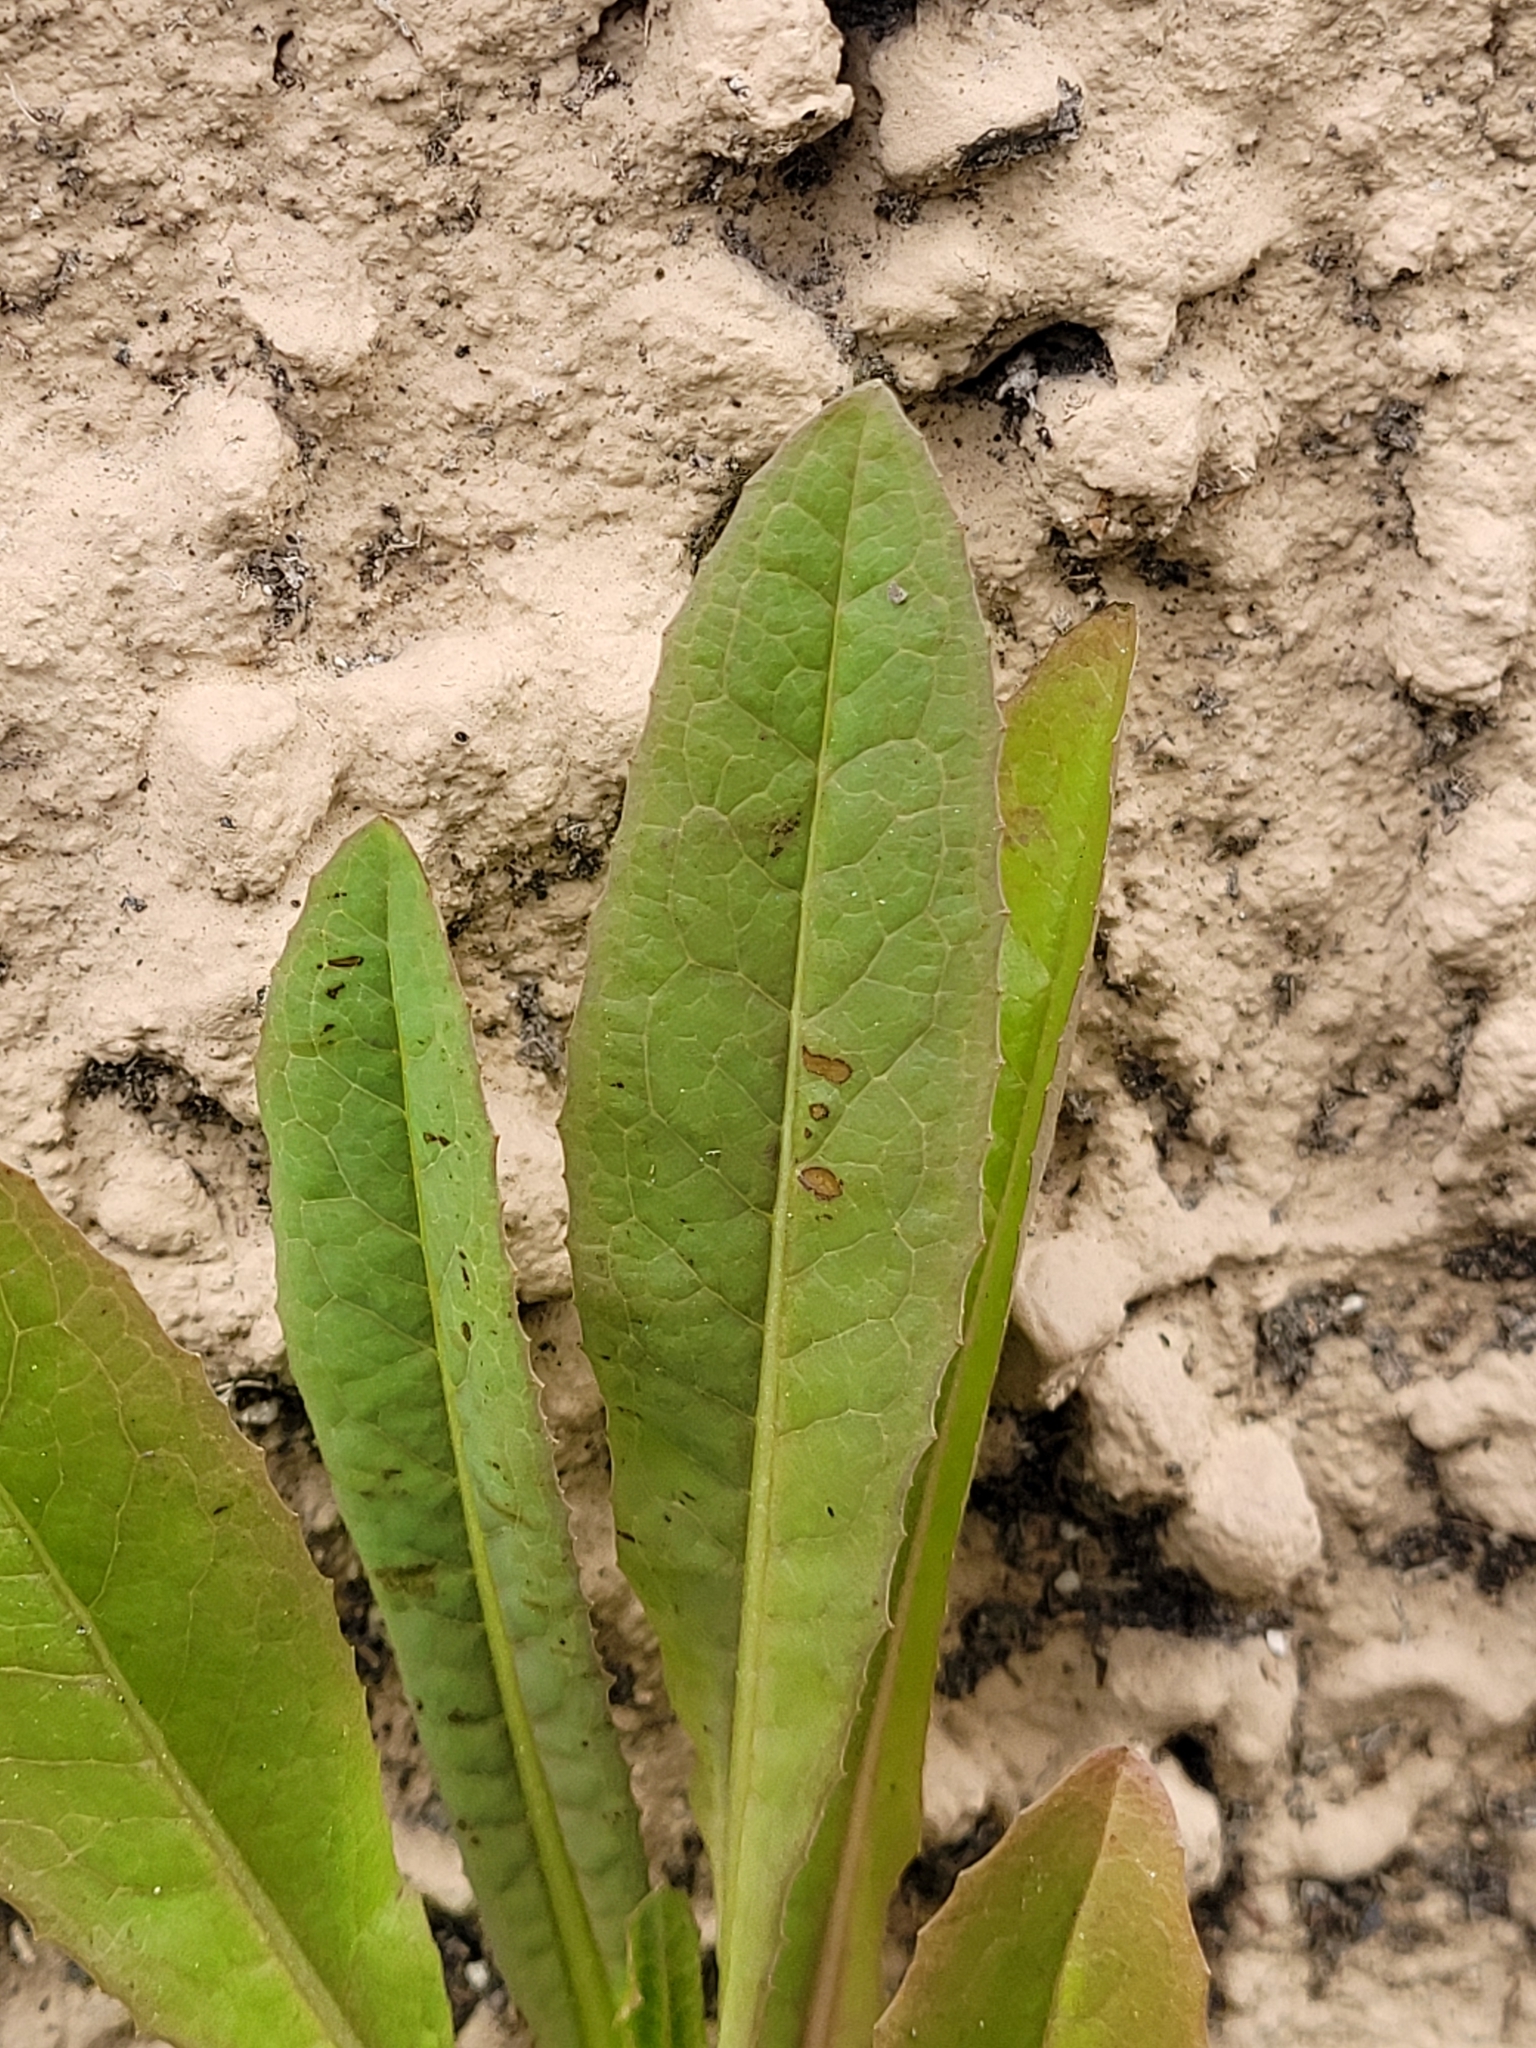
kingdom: Plantae
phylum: Tracheophyta
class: Magnoliopsida
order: Asterales
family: Asteraceae
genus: Lactuca
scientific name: Lactuca serriola
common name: Prickly lettuce
